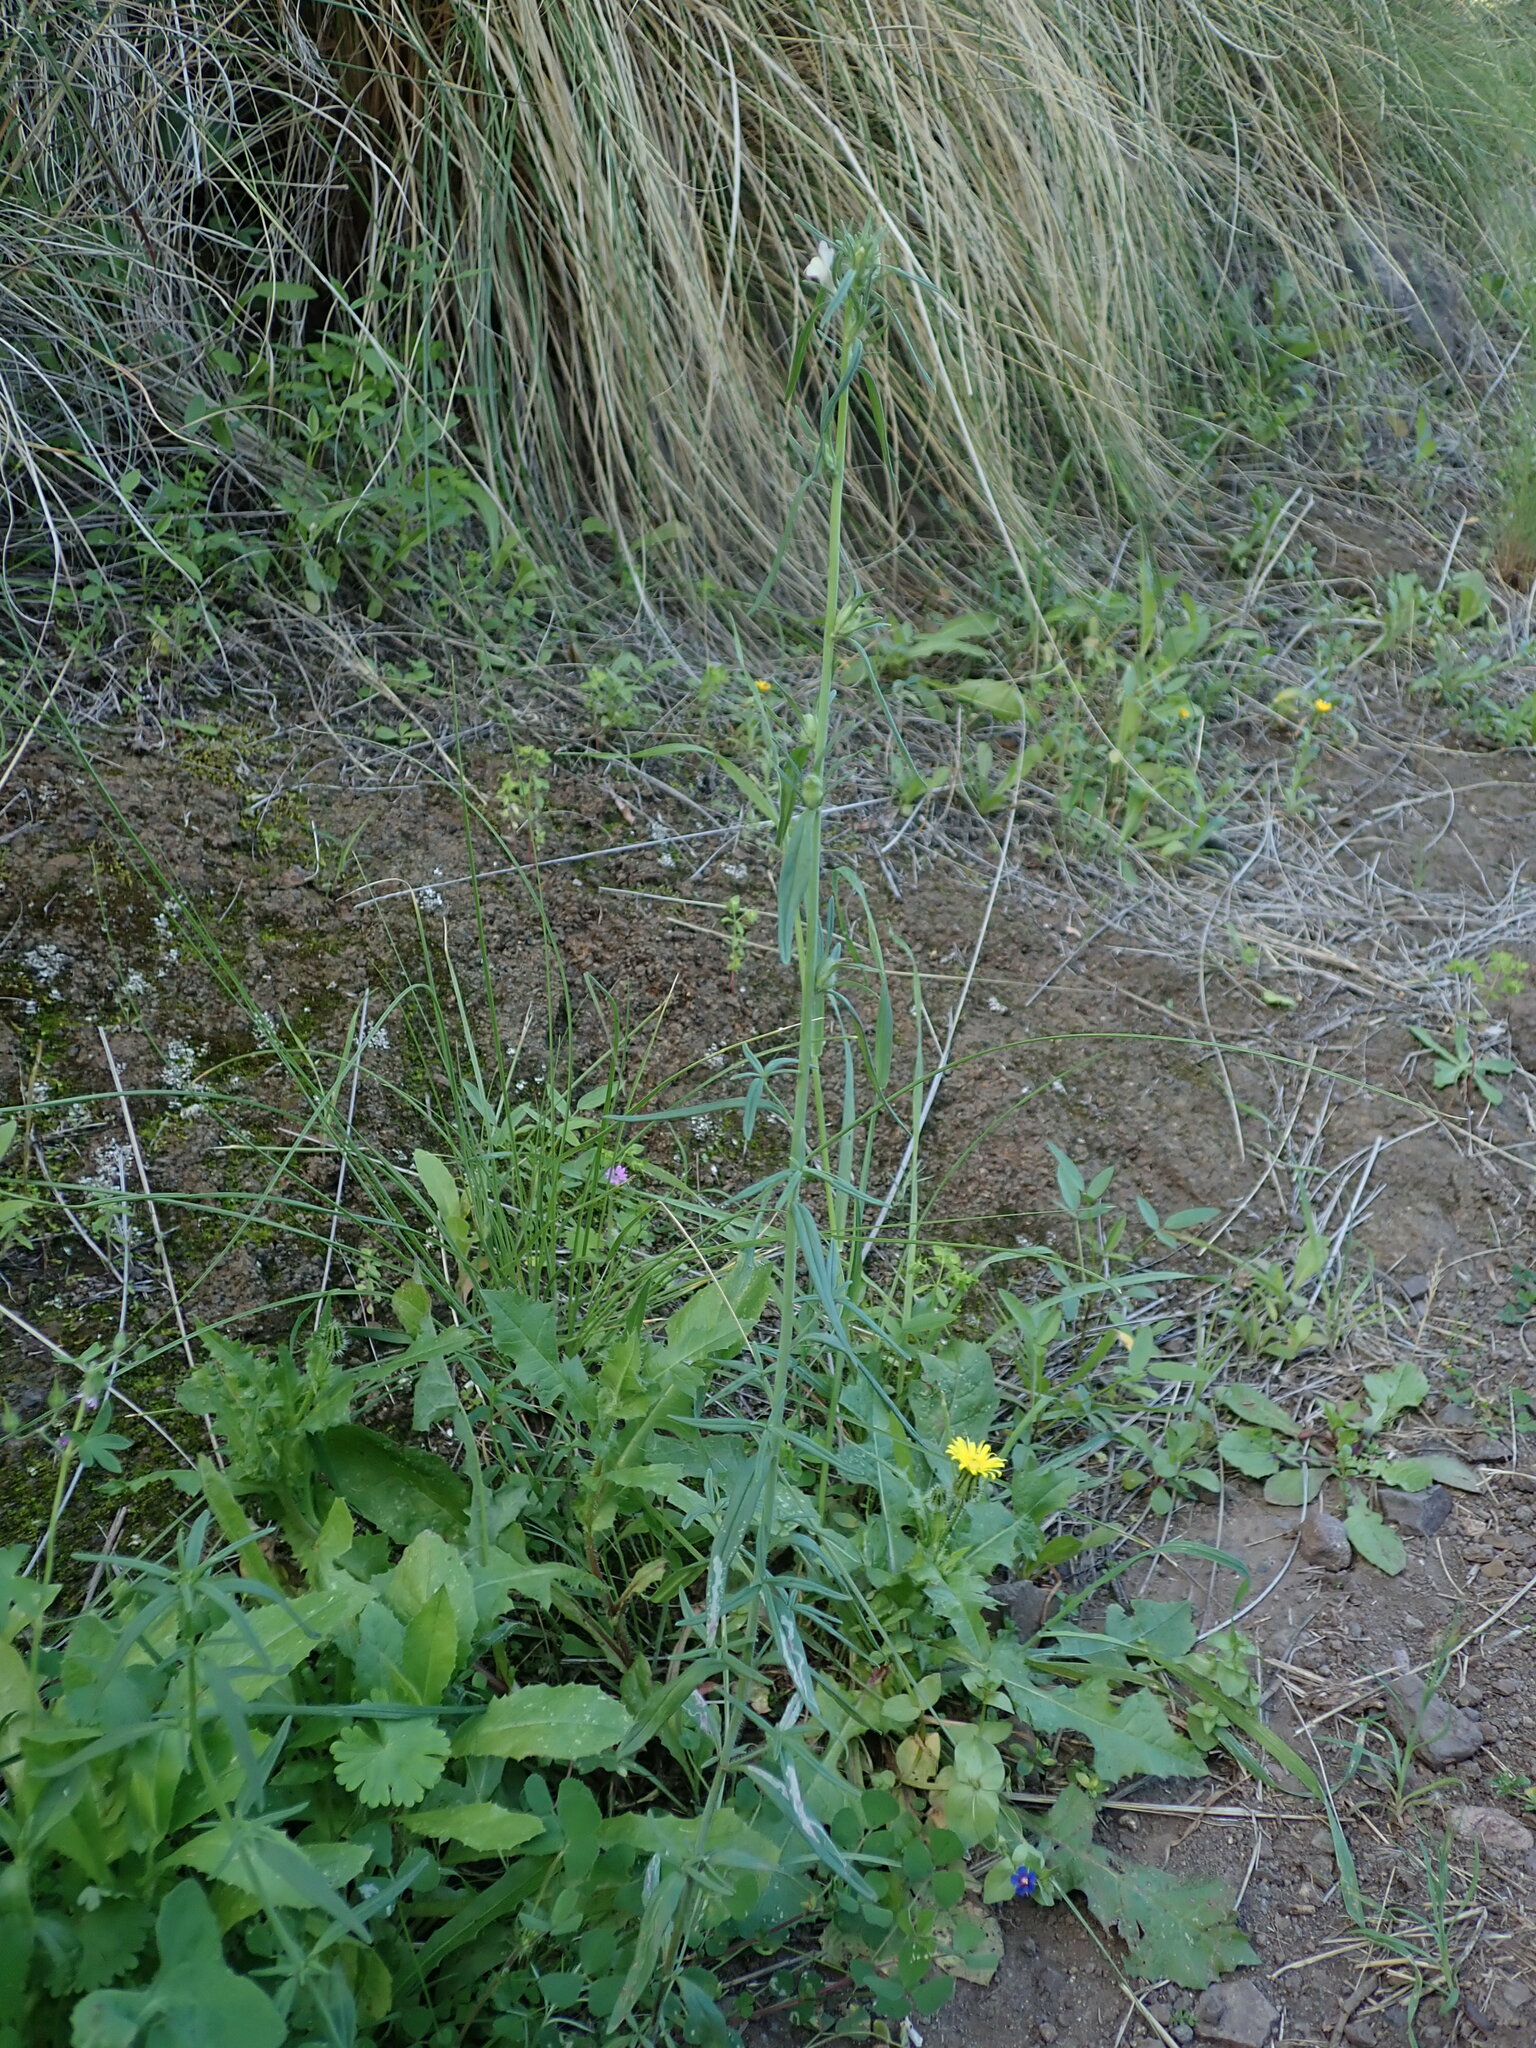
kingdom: Plantae
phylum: Tracheophyta
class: Magnoliopsida
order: Lamiales
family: Plantaginaceae
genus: Misopates
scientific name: Misopates orontium
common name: Weasel's-snout
